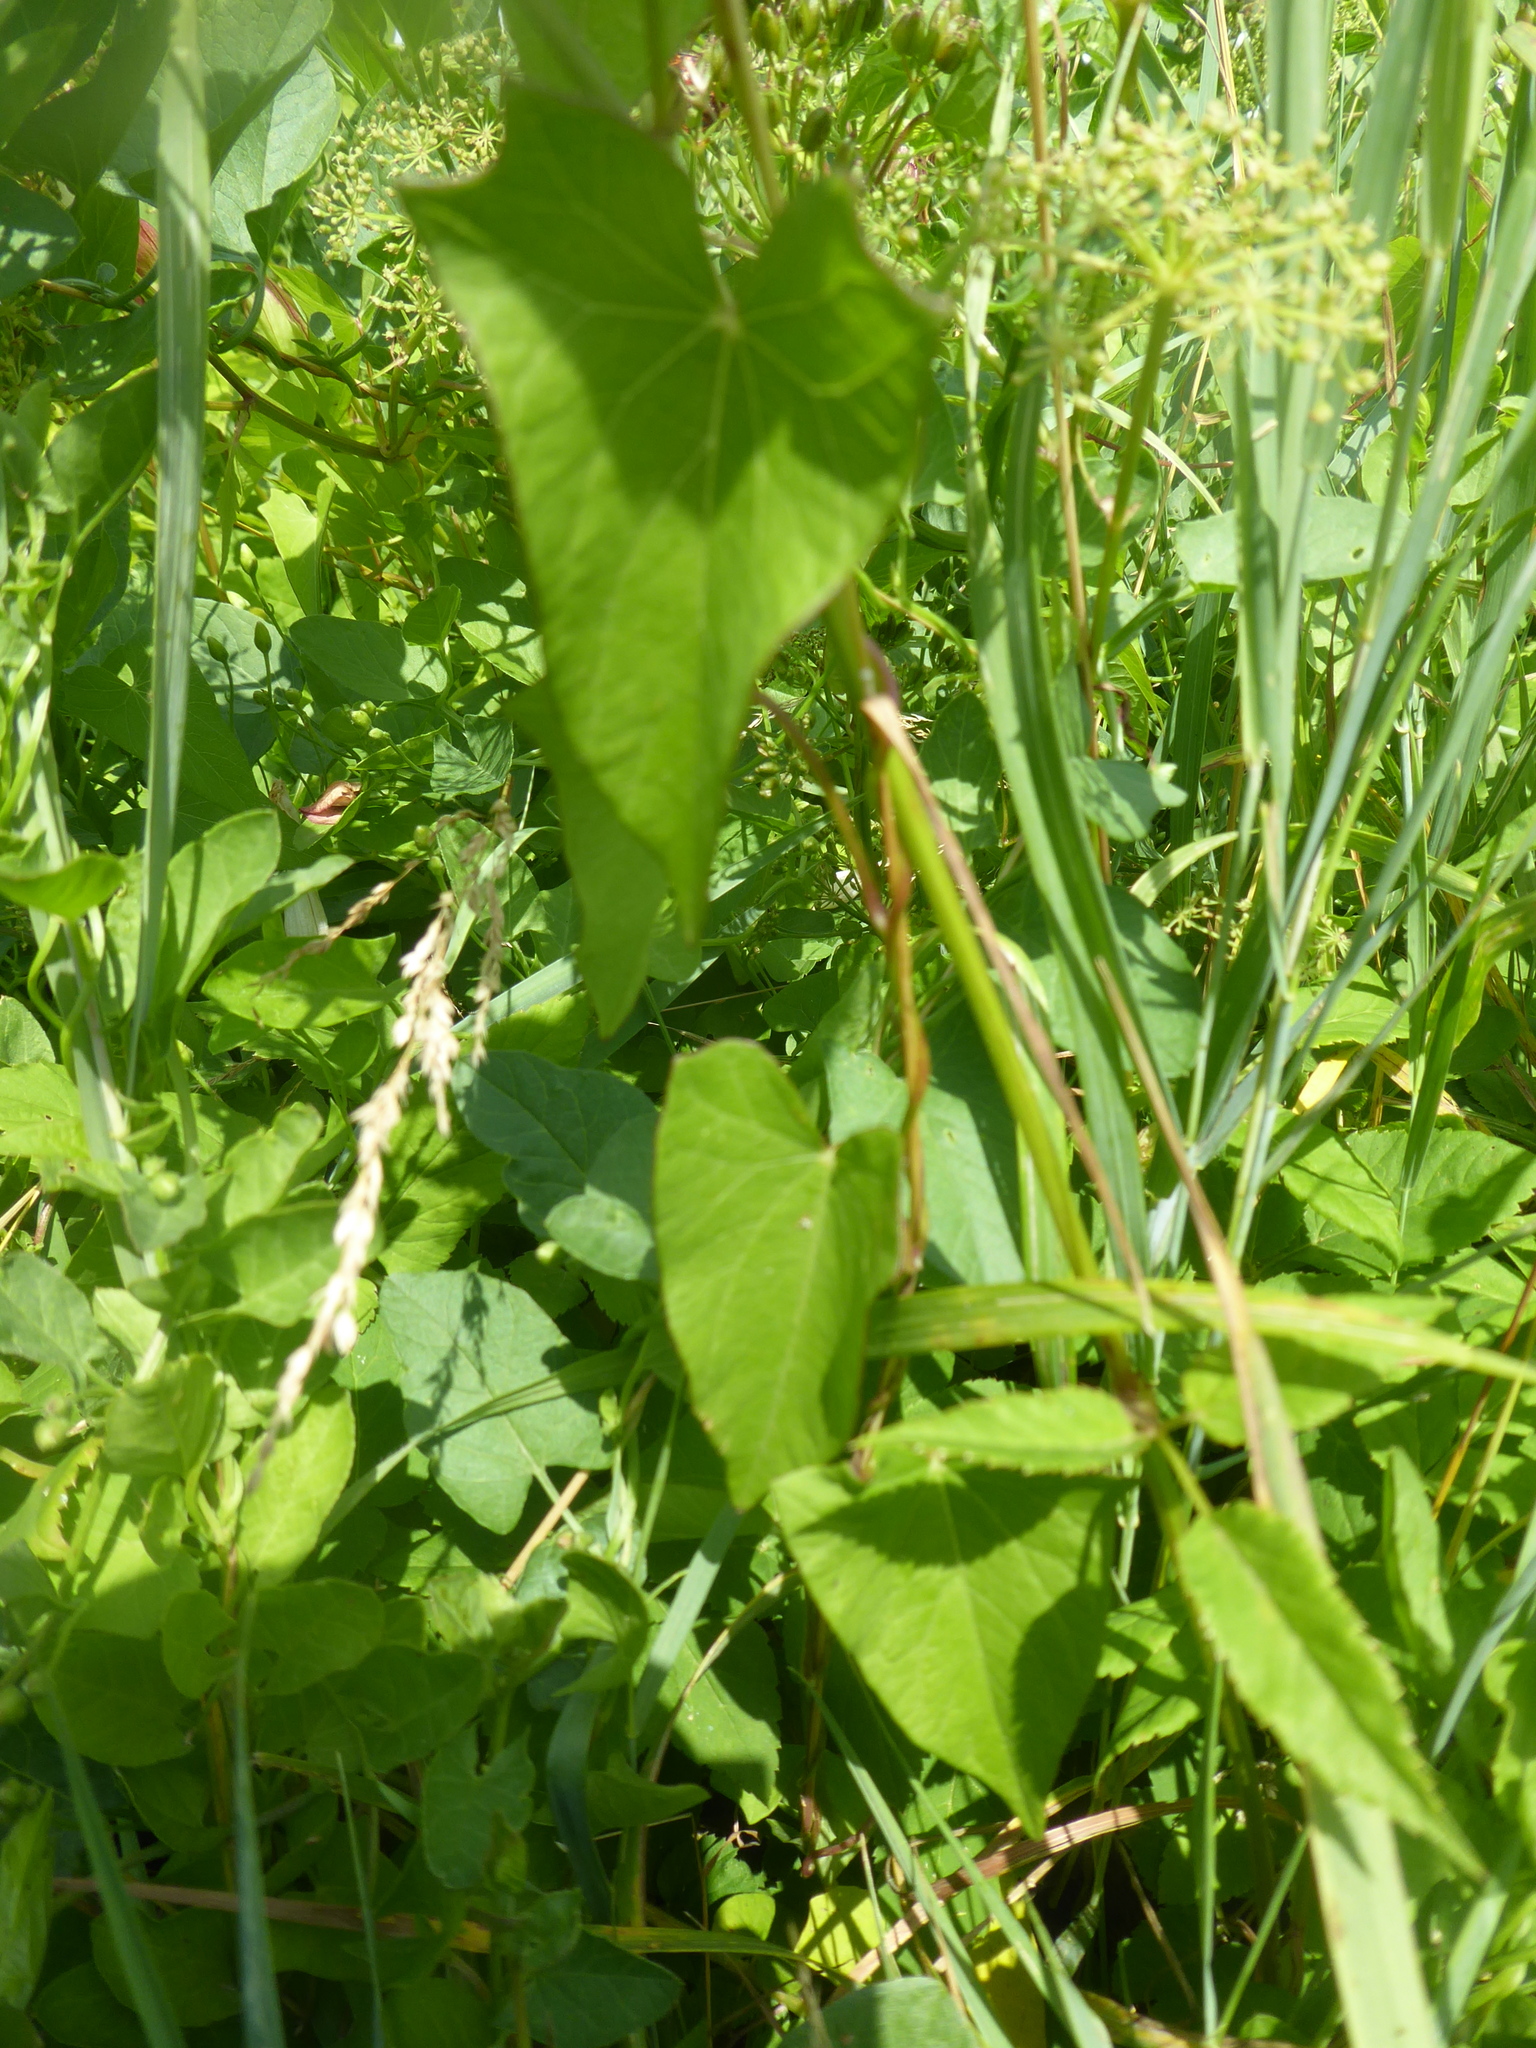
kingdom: Plantae
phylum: Tracheophyta
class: Magnoliopsida
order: Solanales
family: Convolvulaceae
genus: Calystegia
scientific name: Calystegia sepium
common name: Hedge bindweed
